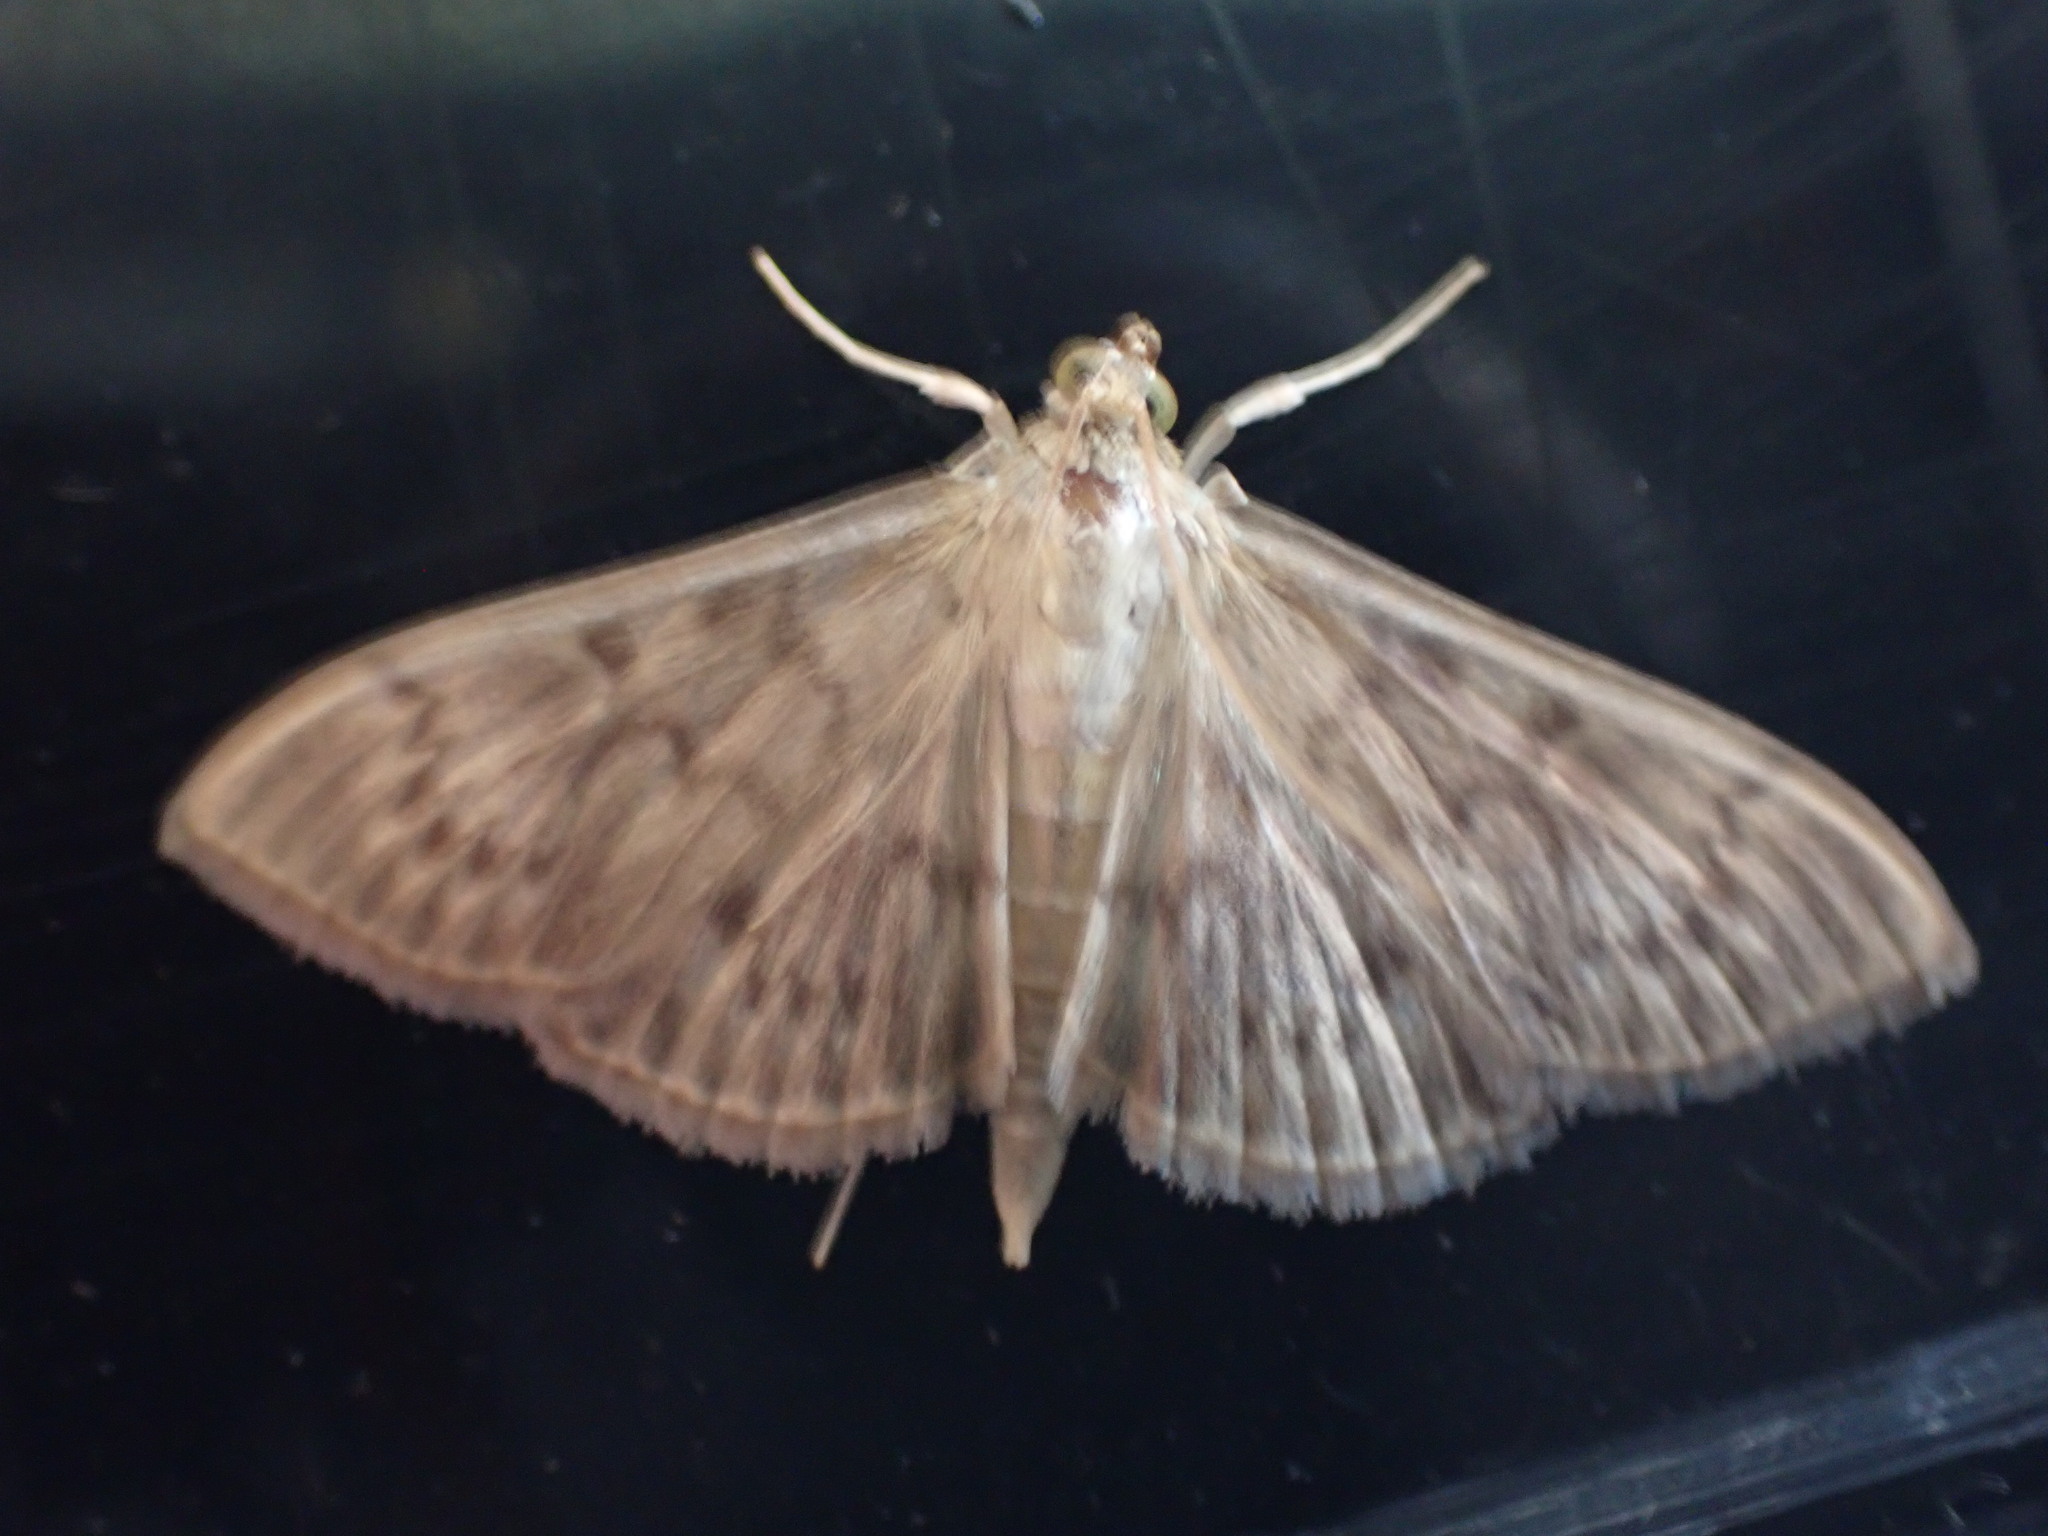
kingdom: Animalia
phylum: Arthropoda
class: Insecta
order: Lepidoptera
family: Crambidae
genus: Patania
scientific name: Patania ruralis
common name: Mother of pearl
